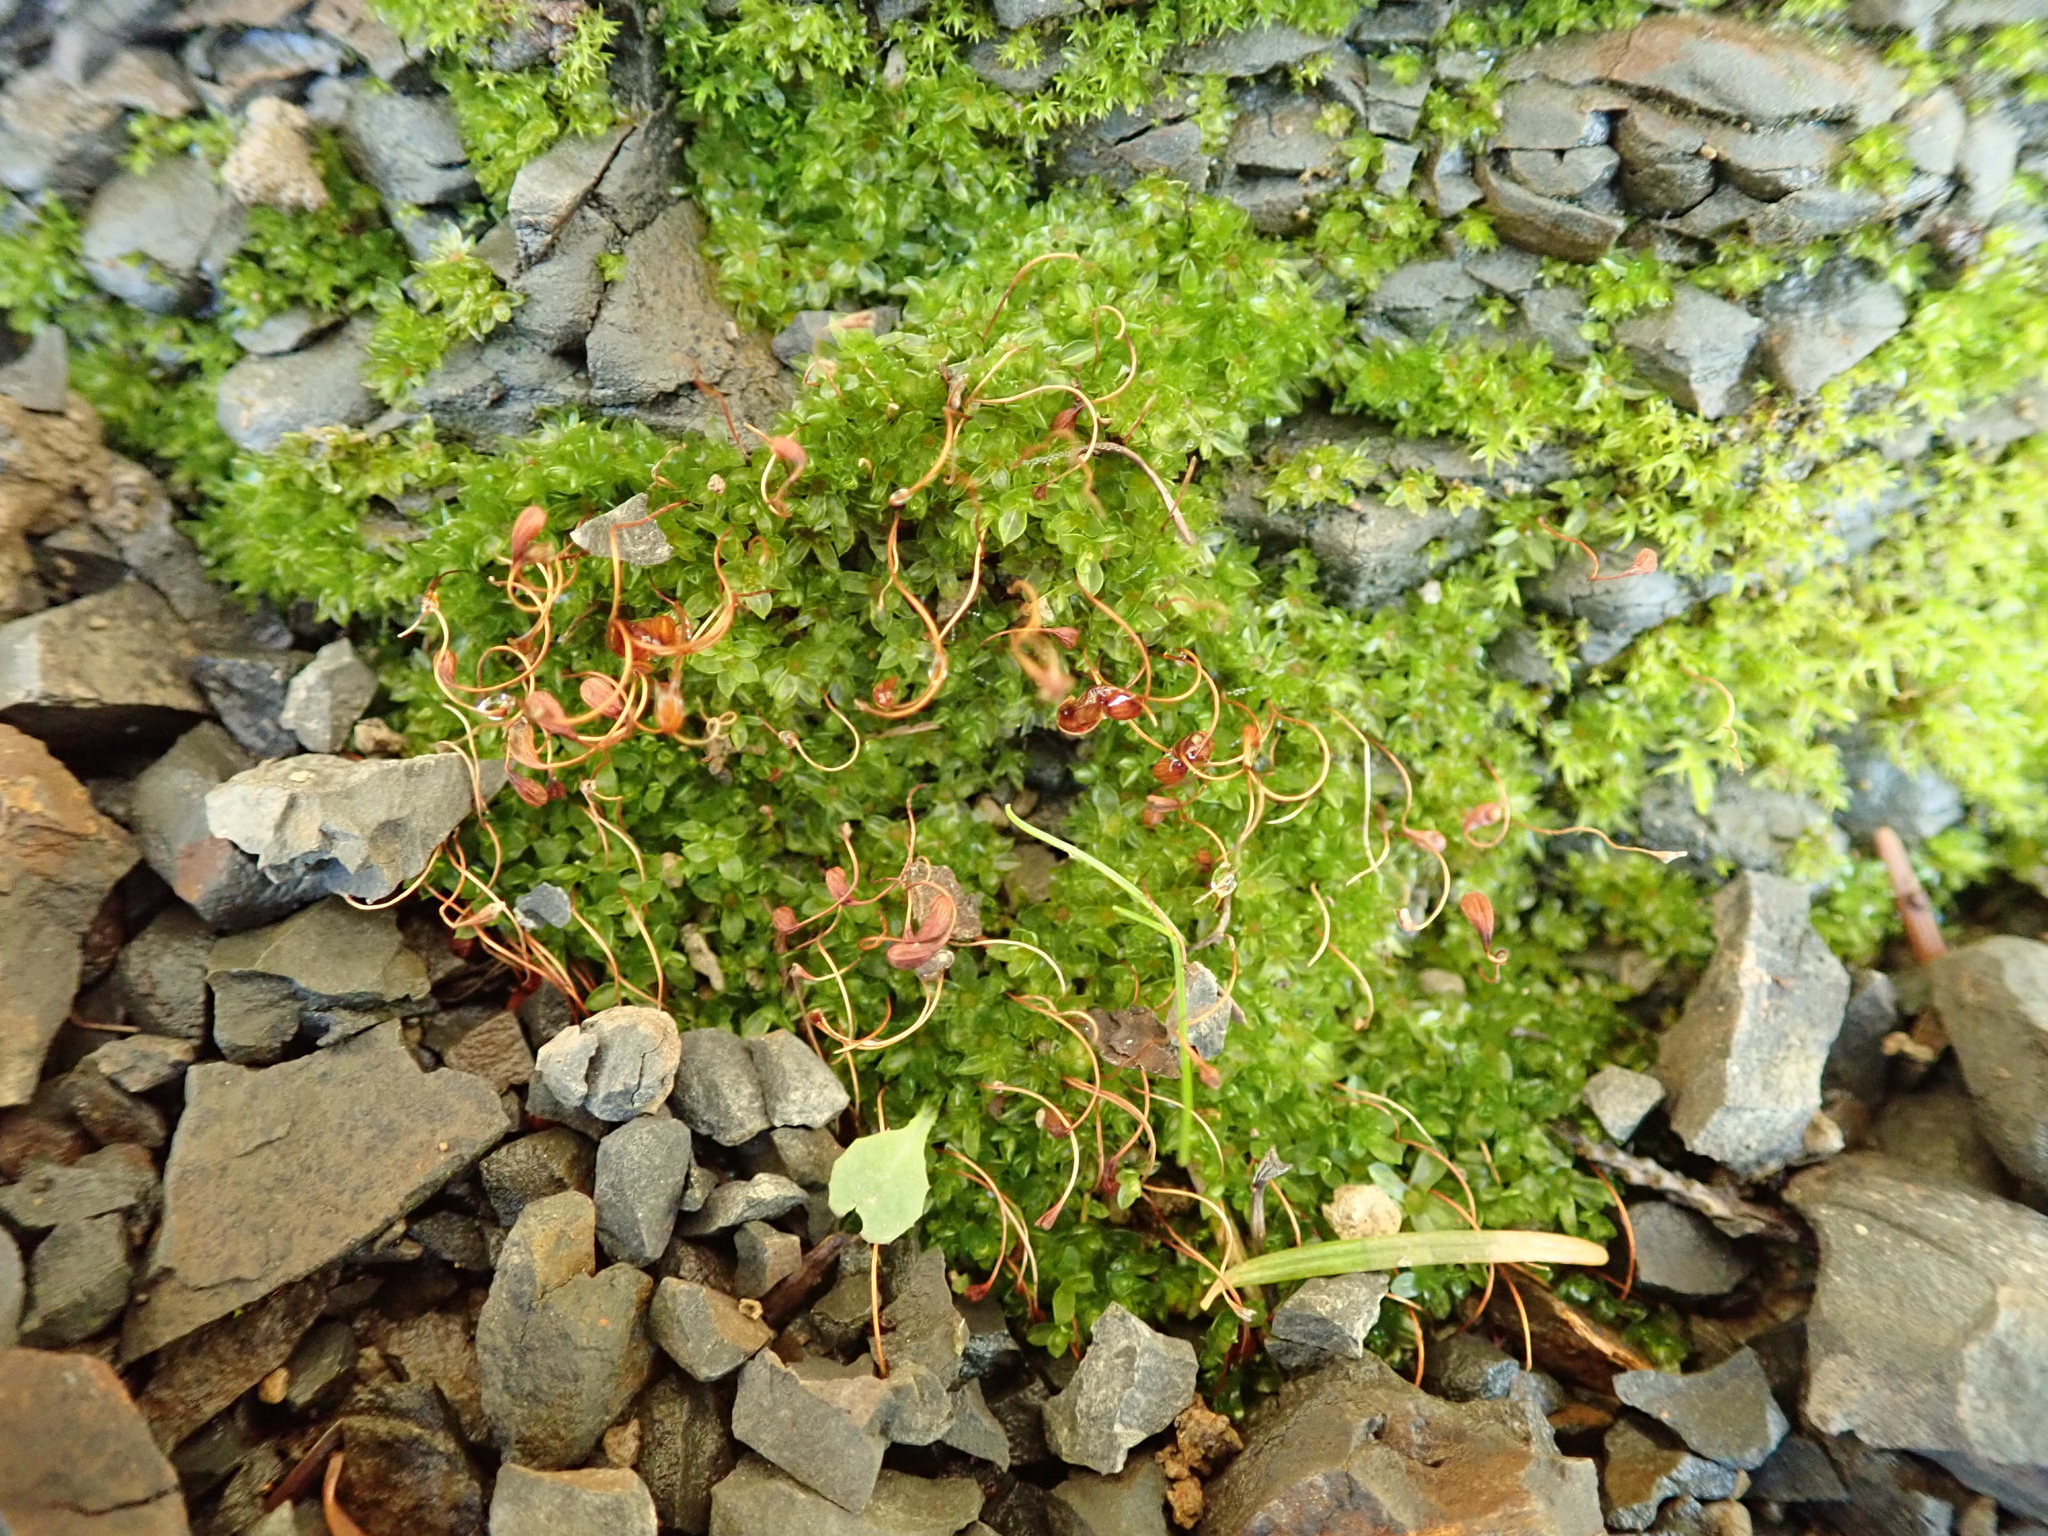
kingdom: Plantae
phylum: Bryophyta
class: Bryopsida
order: Funariales
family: Funariaceae
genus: Funaria
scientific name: Funaria hygrometrica
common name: Common cord moss
